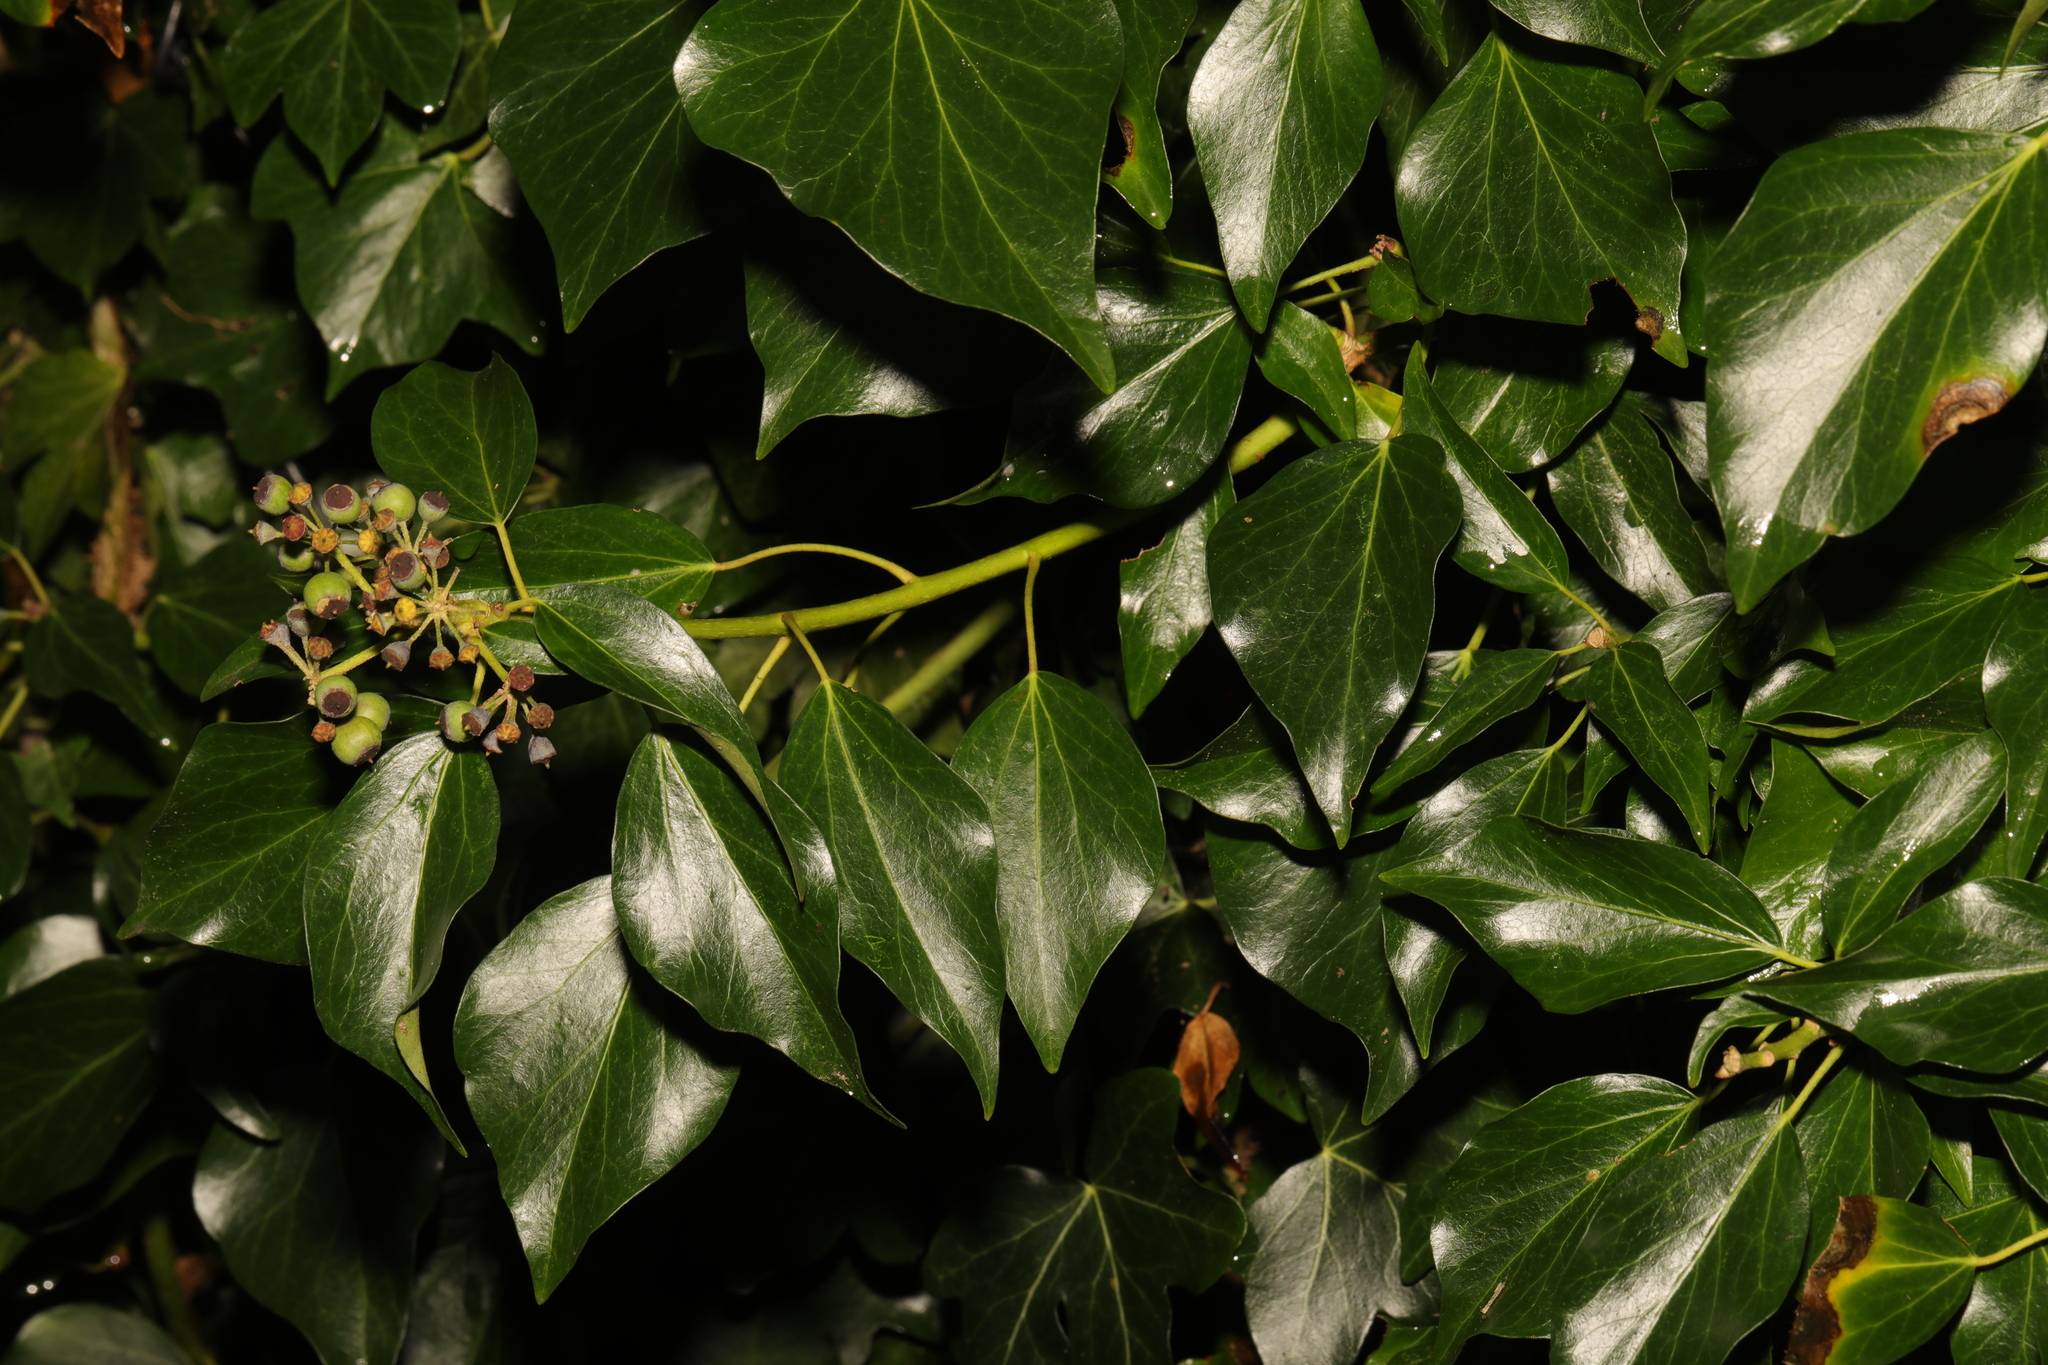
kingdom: Plantae
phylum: Tracheophyta
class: Magnoliopsida
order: Apiales
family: Araliaceae
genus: Hedera
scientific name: Hedera helix
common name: Ivy
